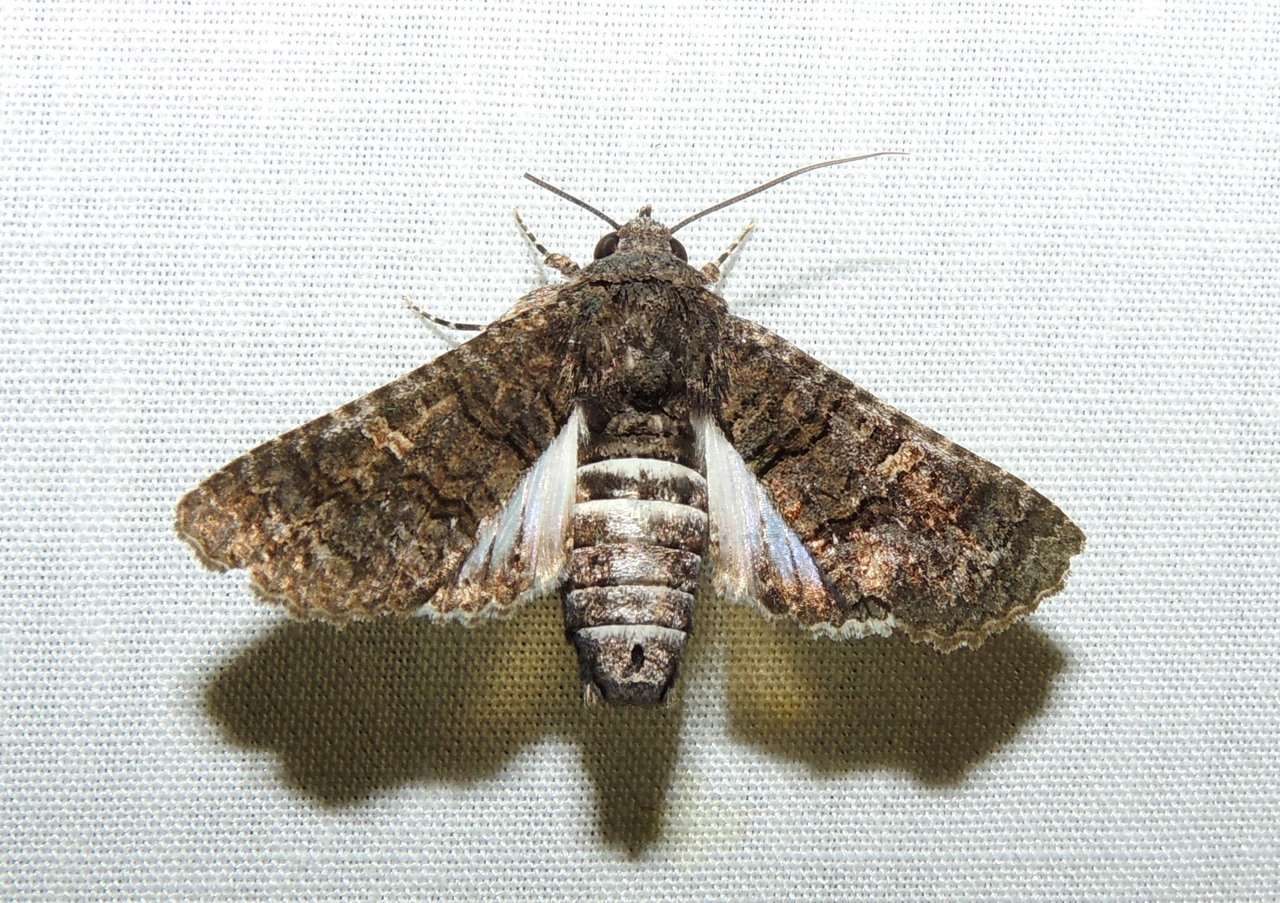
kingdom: Animalia
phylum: Arthropoda
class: Insecta
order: Lepidoptera
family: Euteliidae
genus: Pataeta
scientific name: Pataeta carbo
